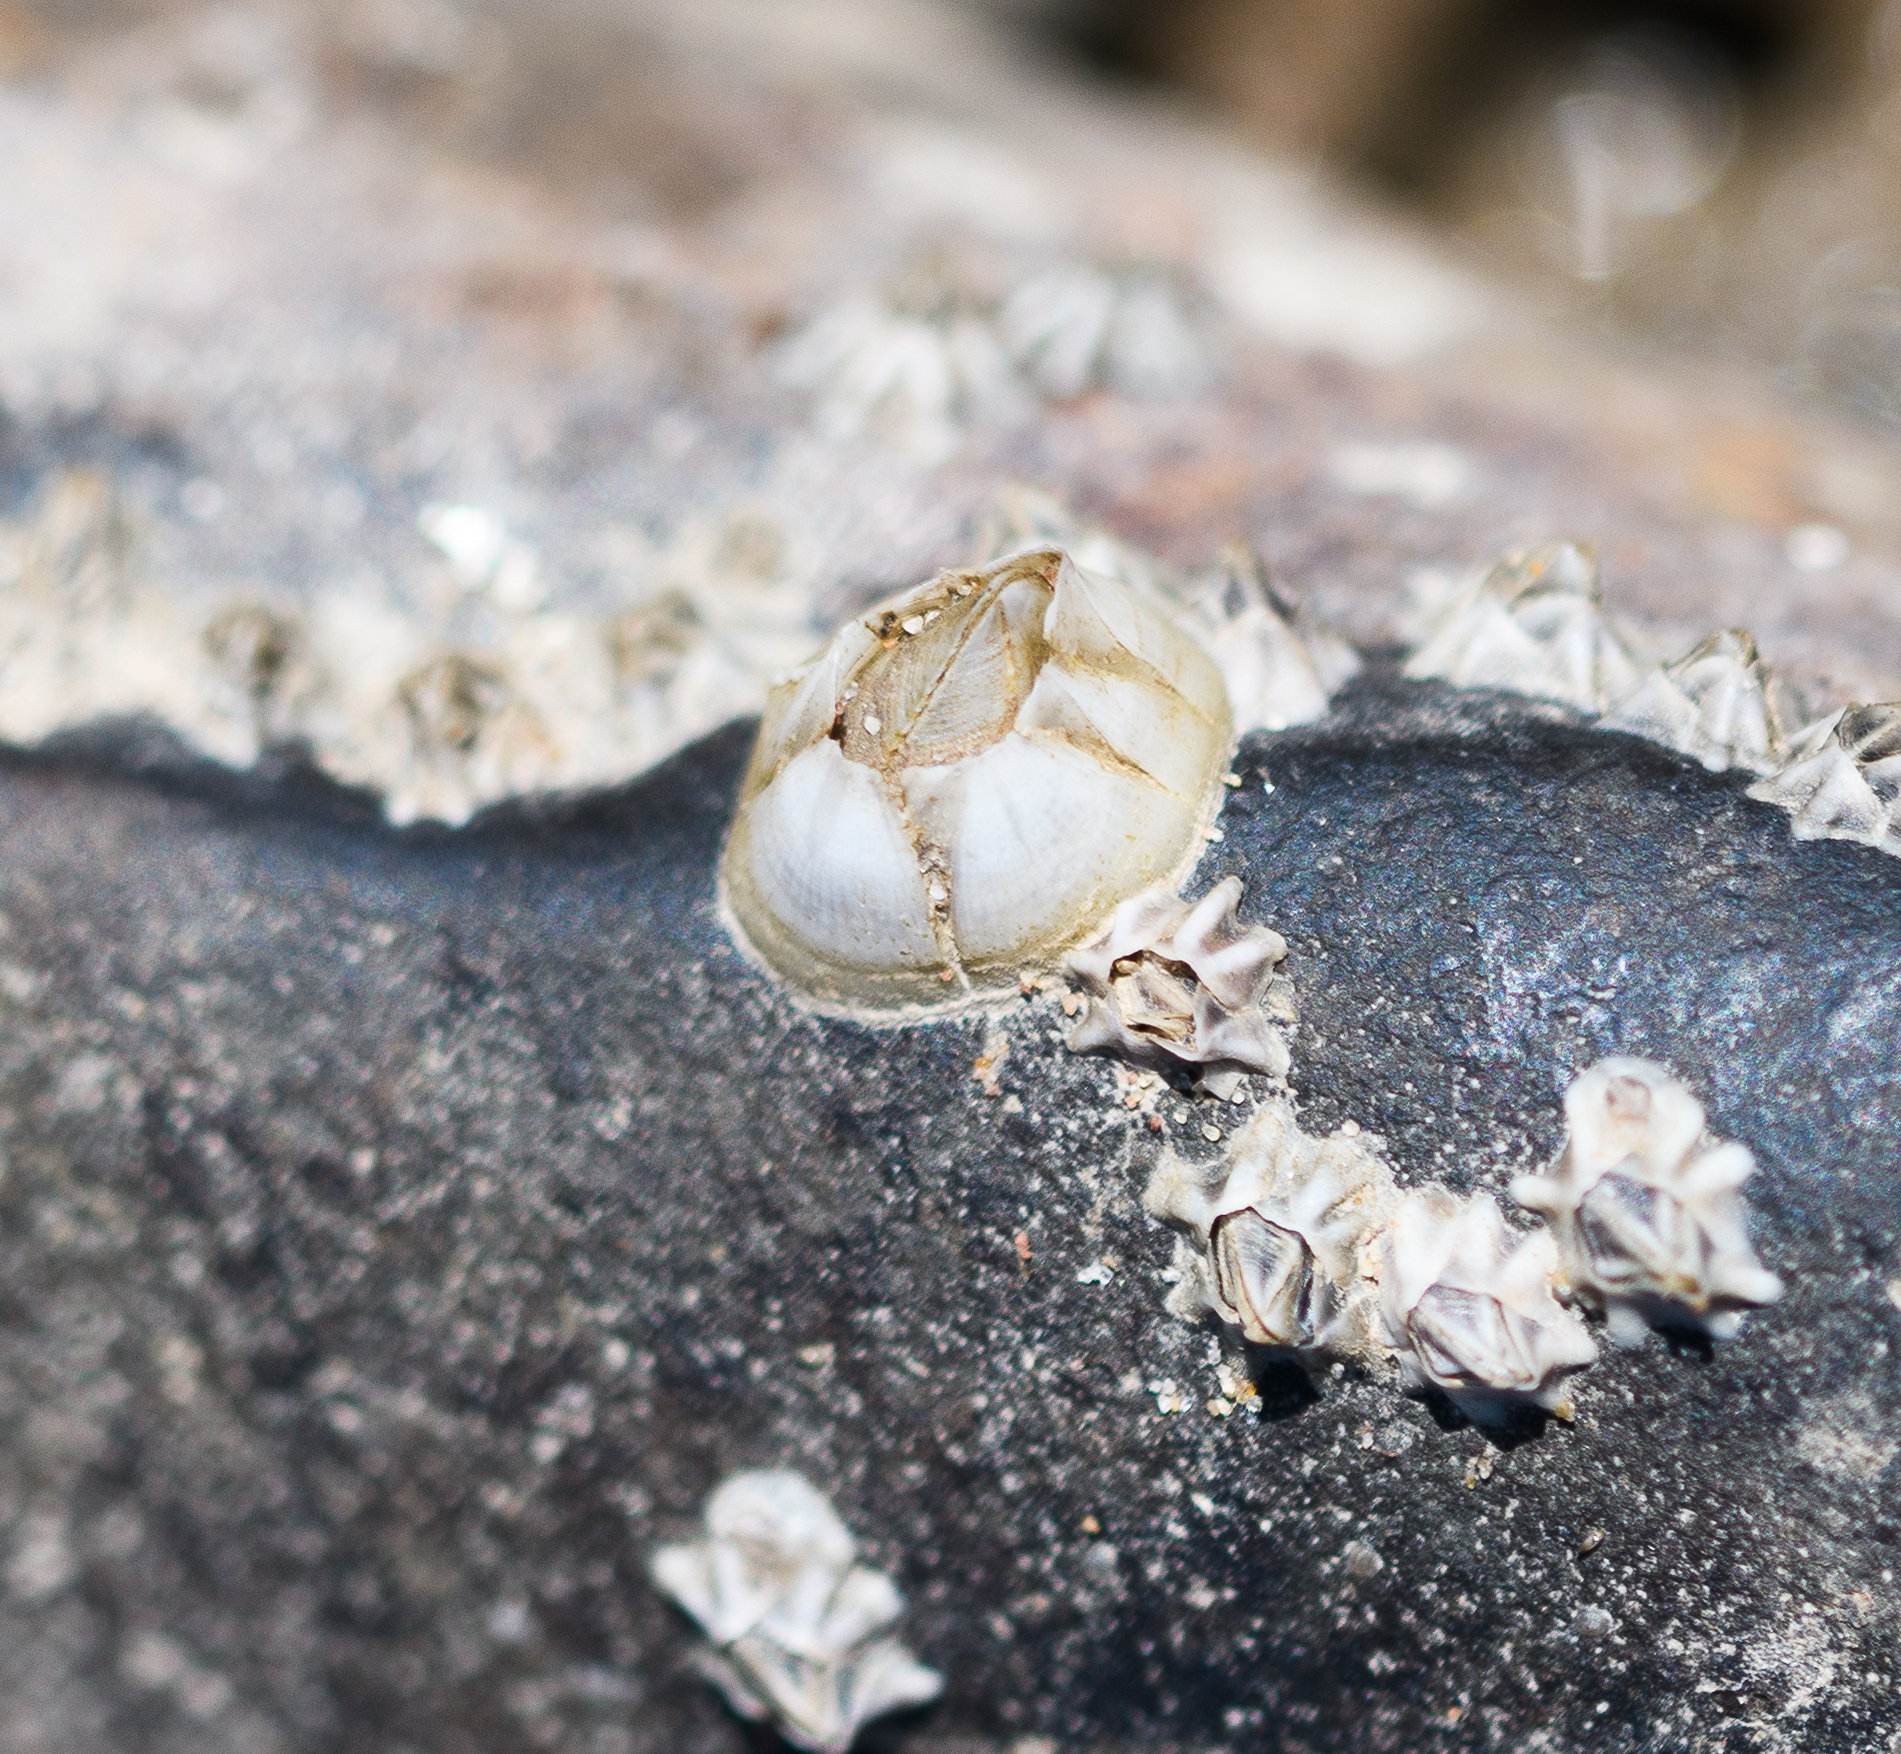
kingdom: Animalia
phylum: Arthropoda
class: Maxillopoda
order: Sessilia
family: Balanidae
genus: Balanus
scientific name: Balanus crenatus
